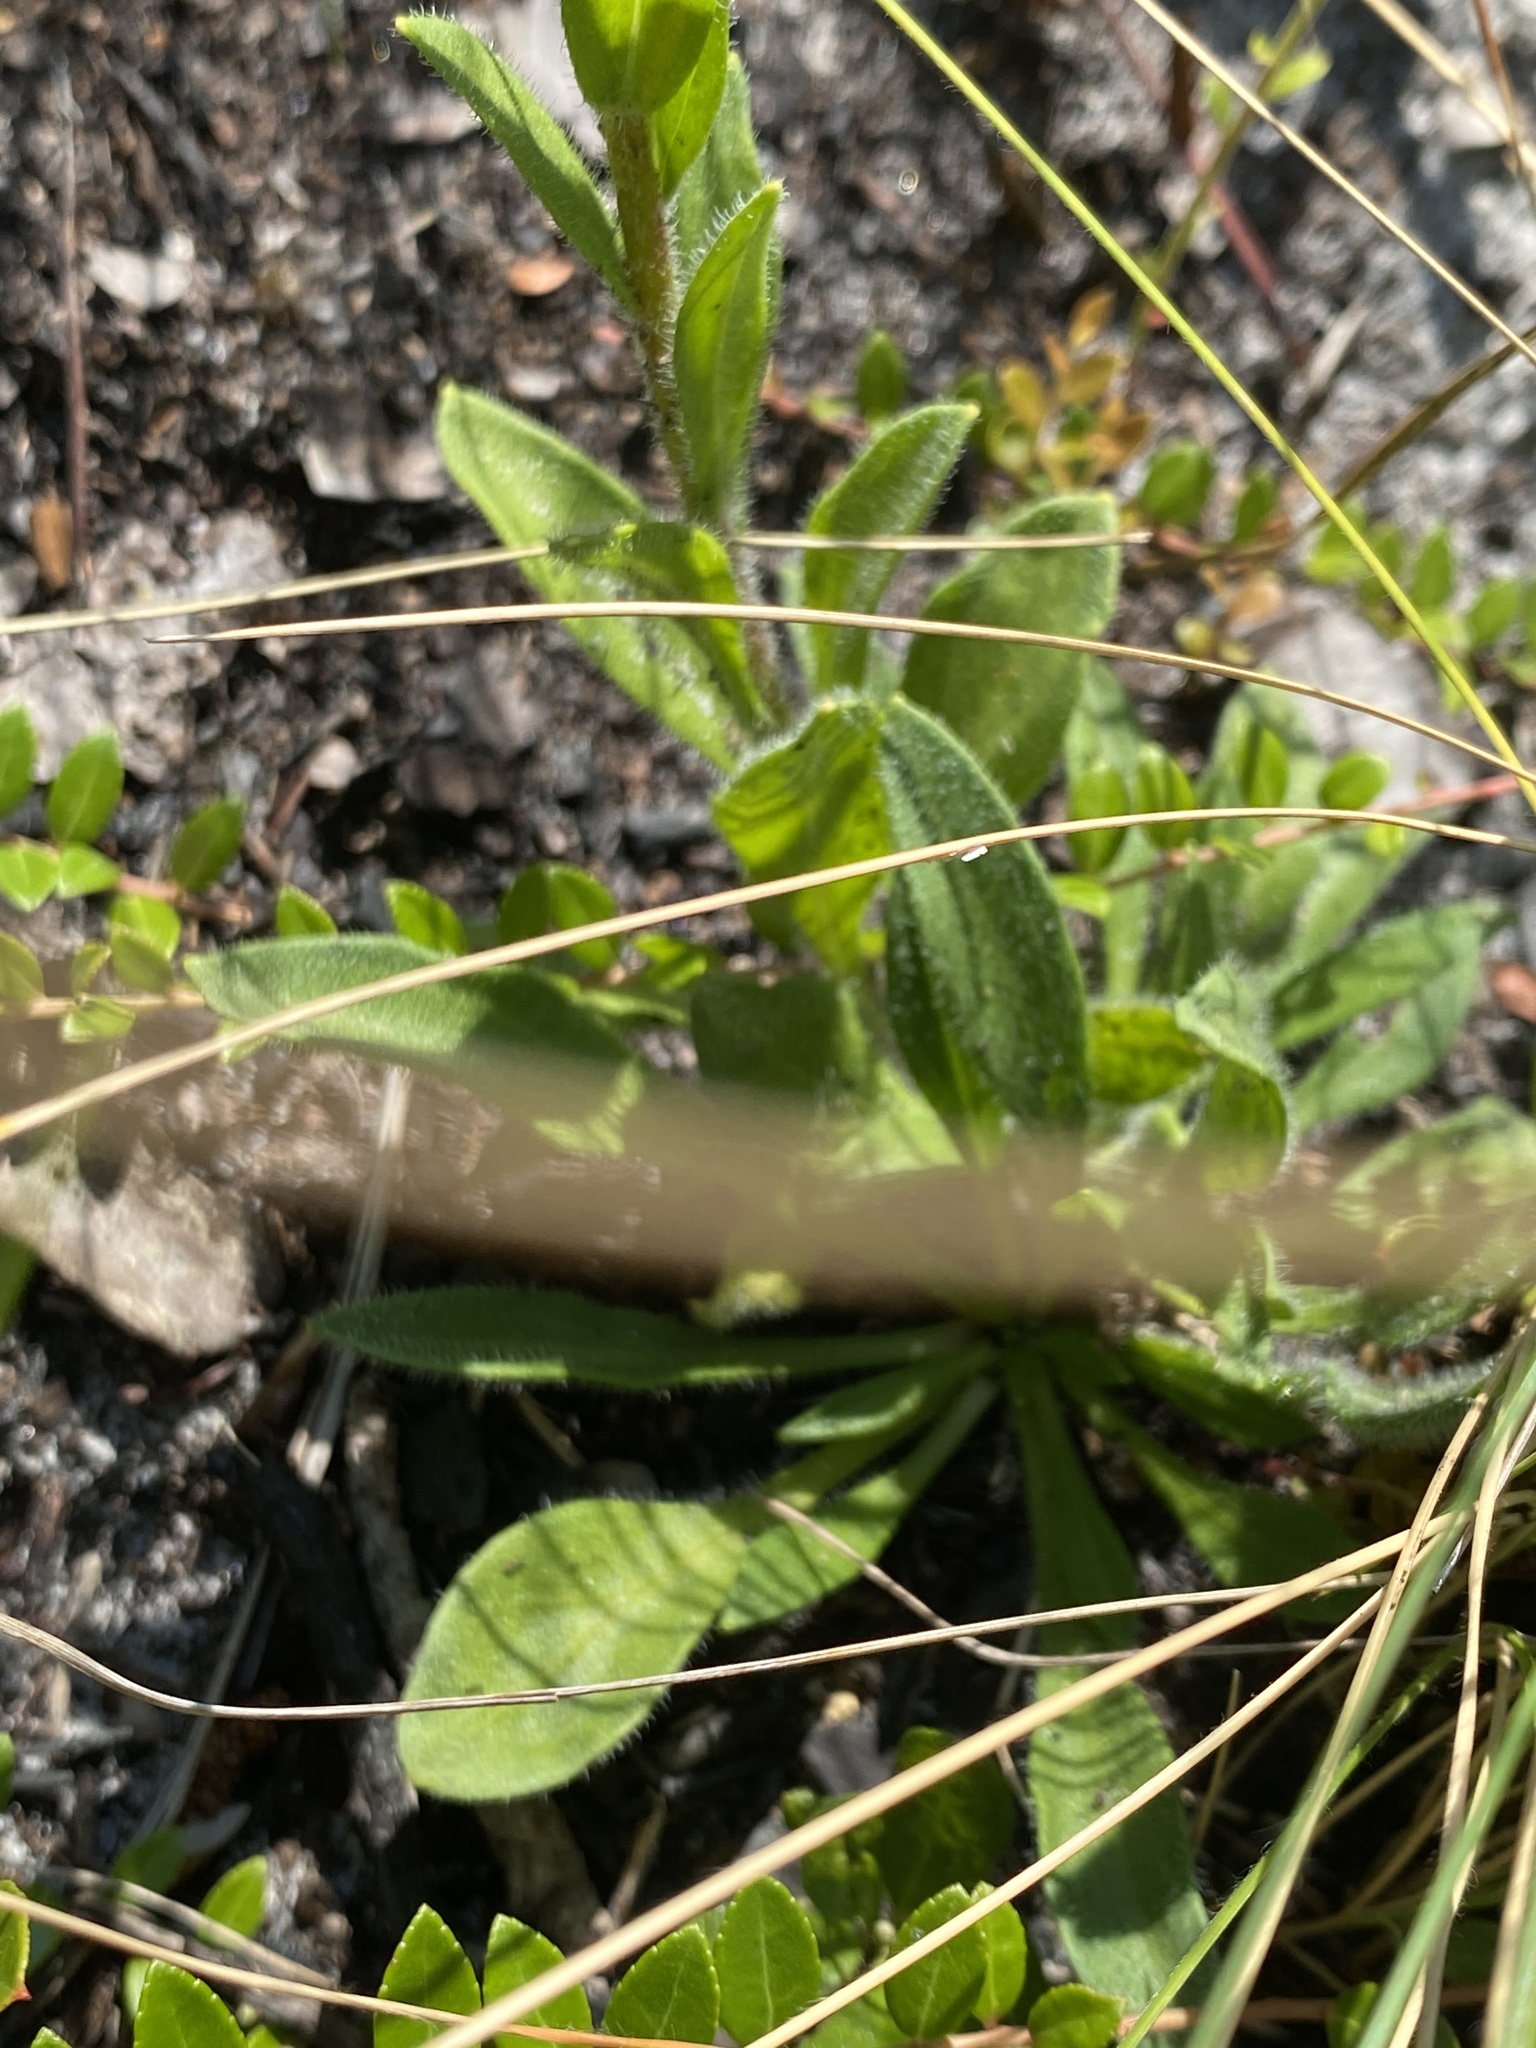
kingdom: Plantae
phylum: Tracheophyta
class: Magnoliopsida
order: Asterales
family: Asteraceae
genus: Carphephorus
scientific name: Carphephorus tomentosus
